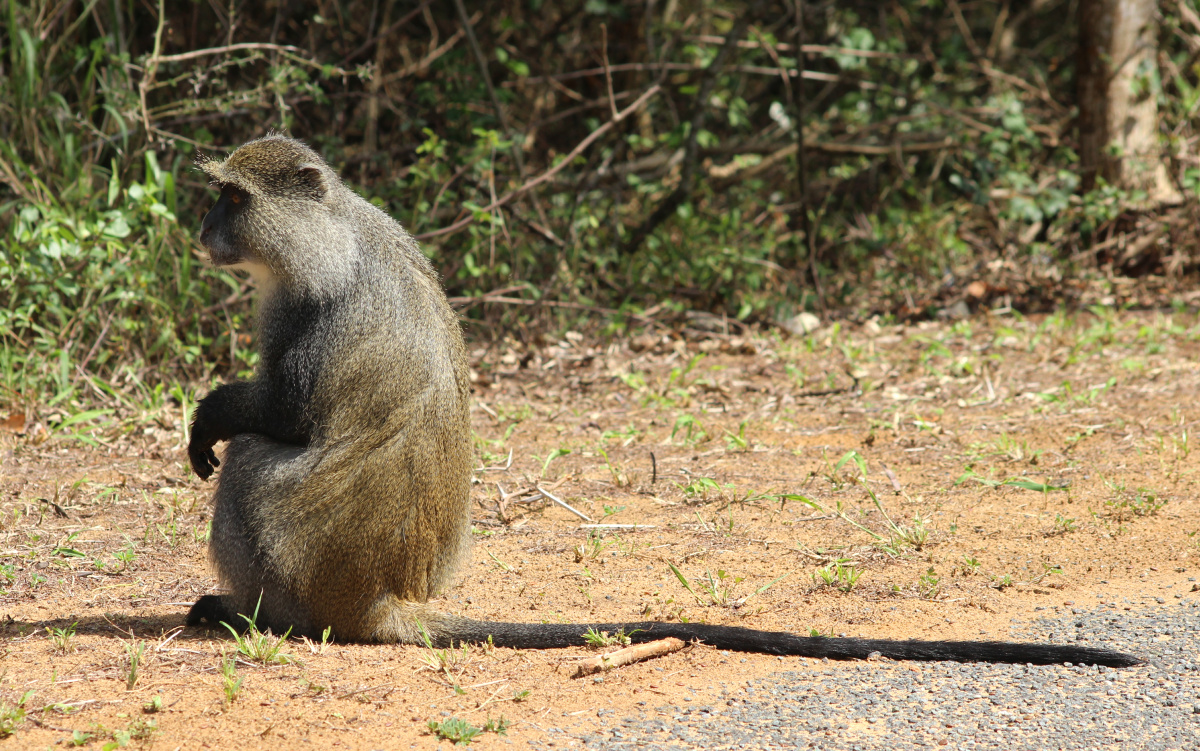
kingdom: Animalia
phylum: Chordata
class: Mammalia
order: Primates
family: Cercopithecidae
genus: Cercopithecus
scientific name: Cercopithecus mitis
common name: Blue monkey
